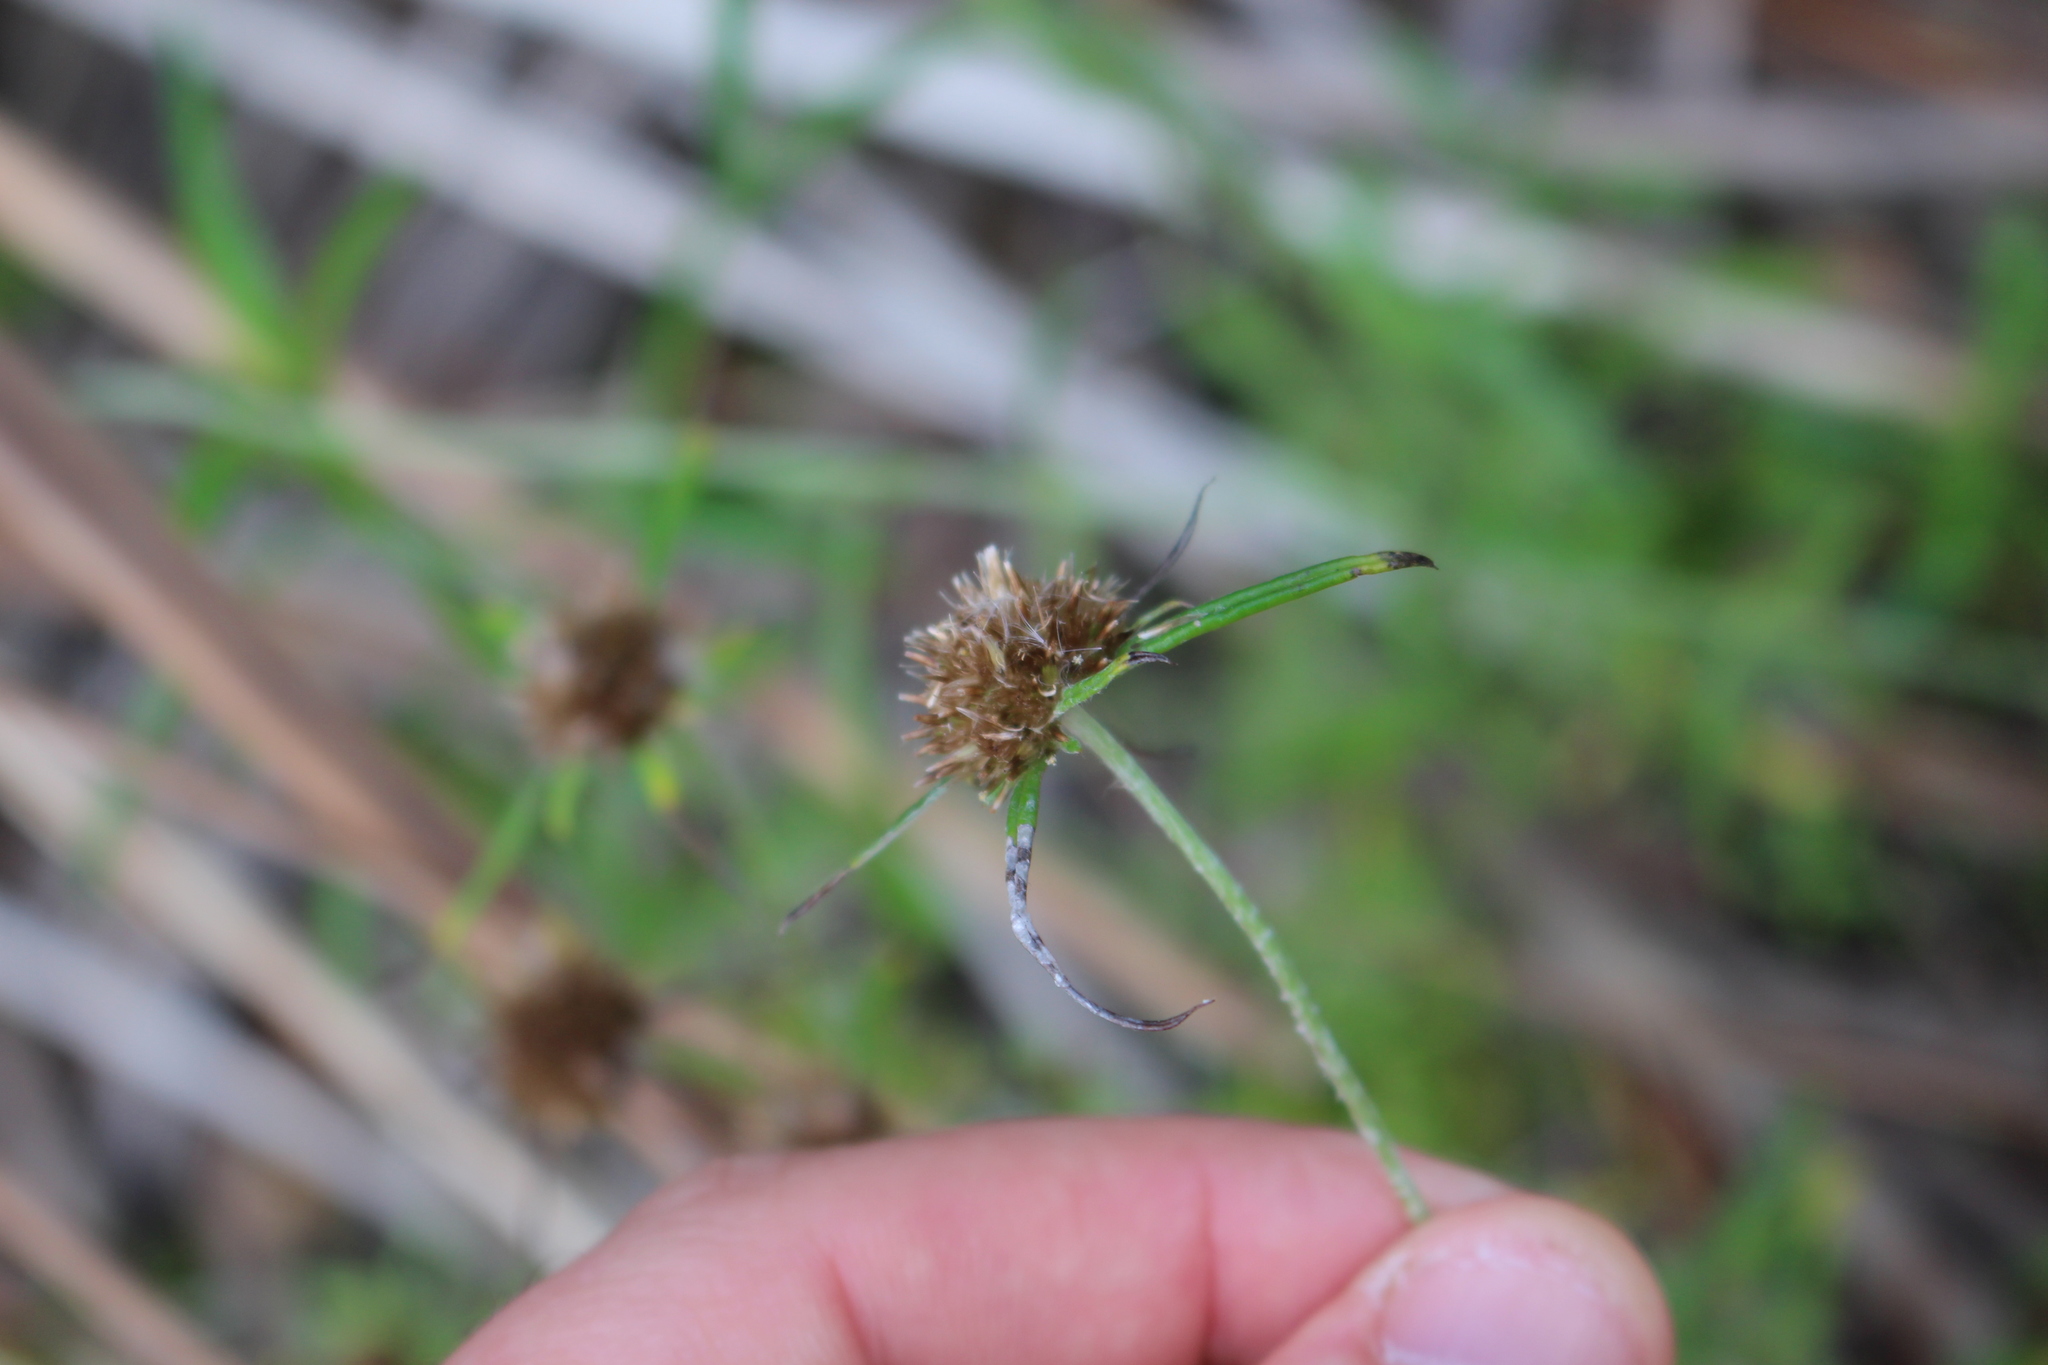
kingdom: Plantae
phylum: Tracheophyta
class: Magnoliopsida
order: Asterales
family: Asteraceae
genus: Euchiton
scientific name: Euchiton sphaericus
